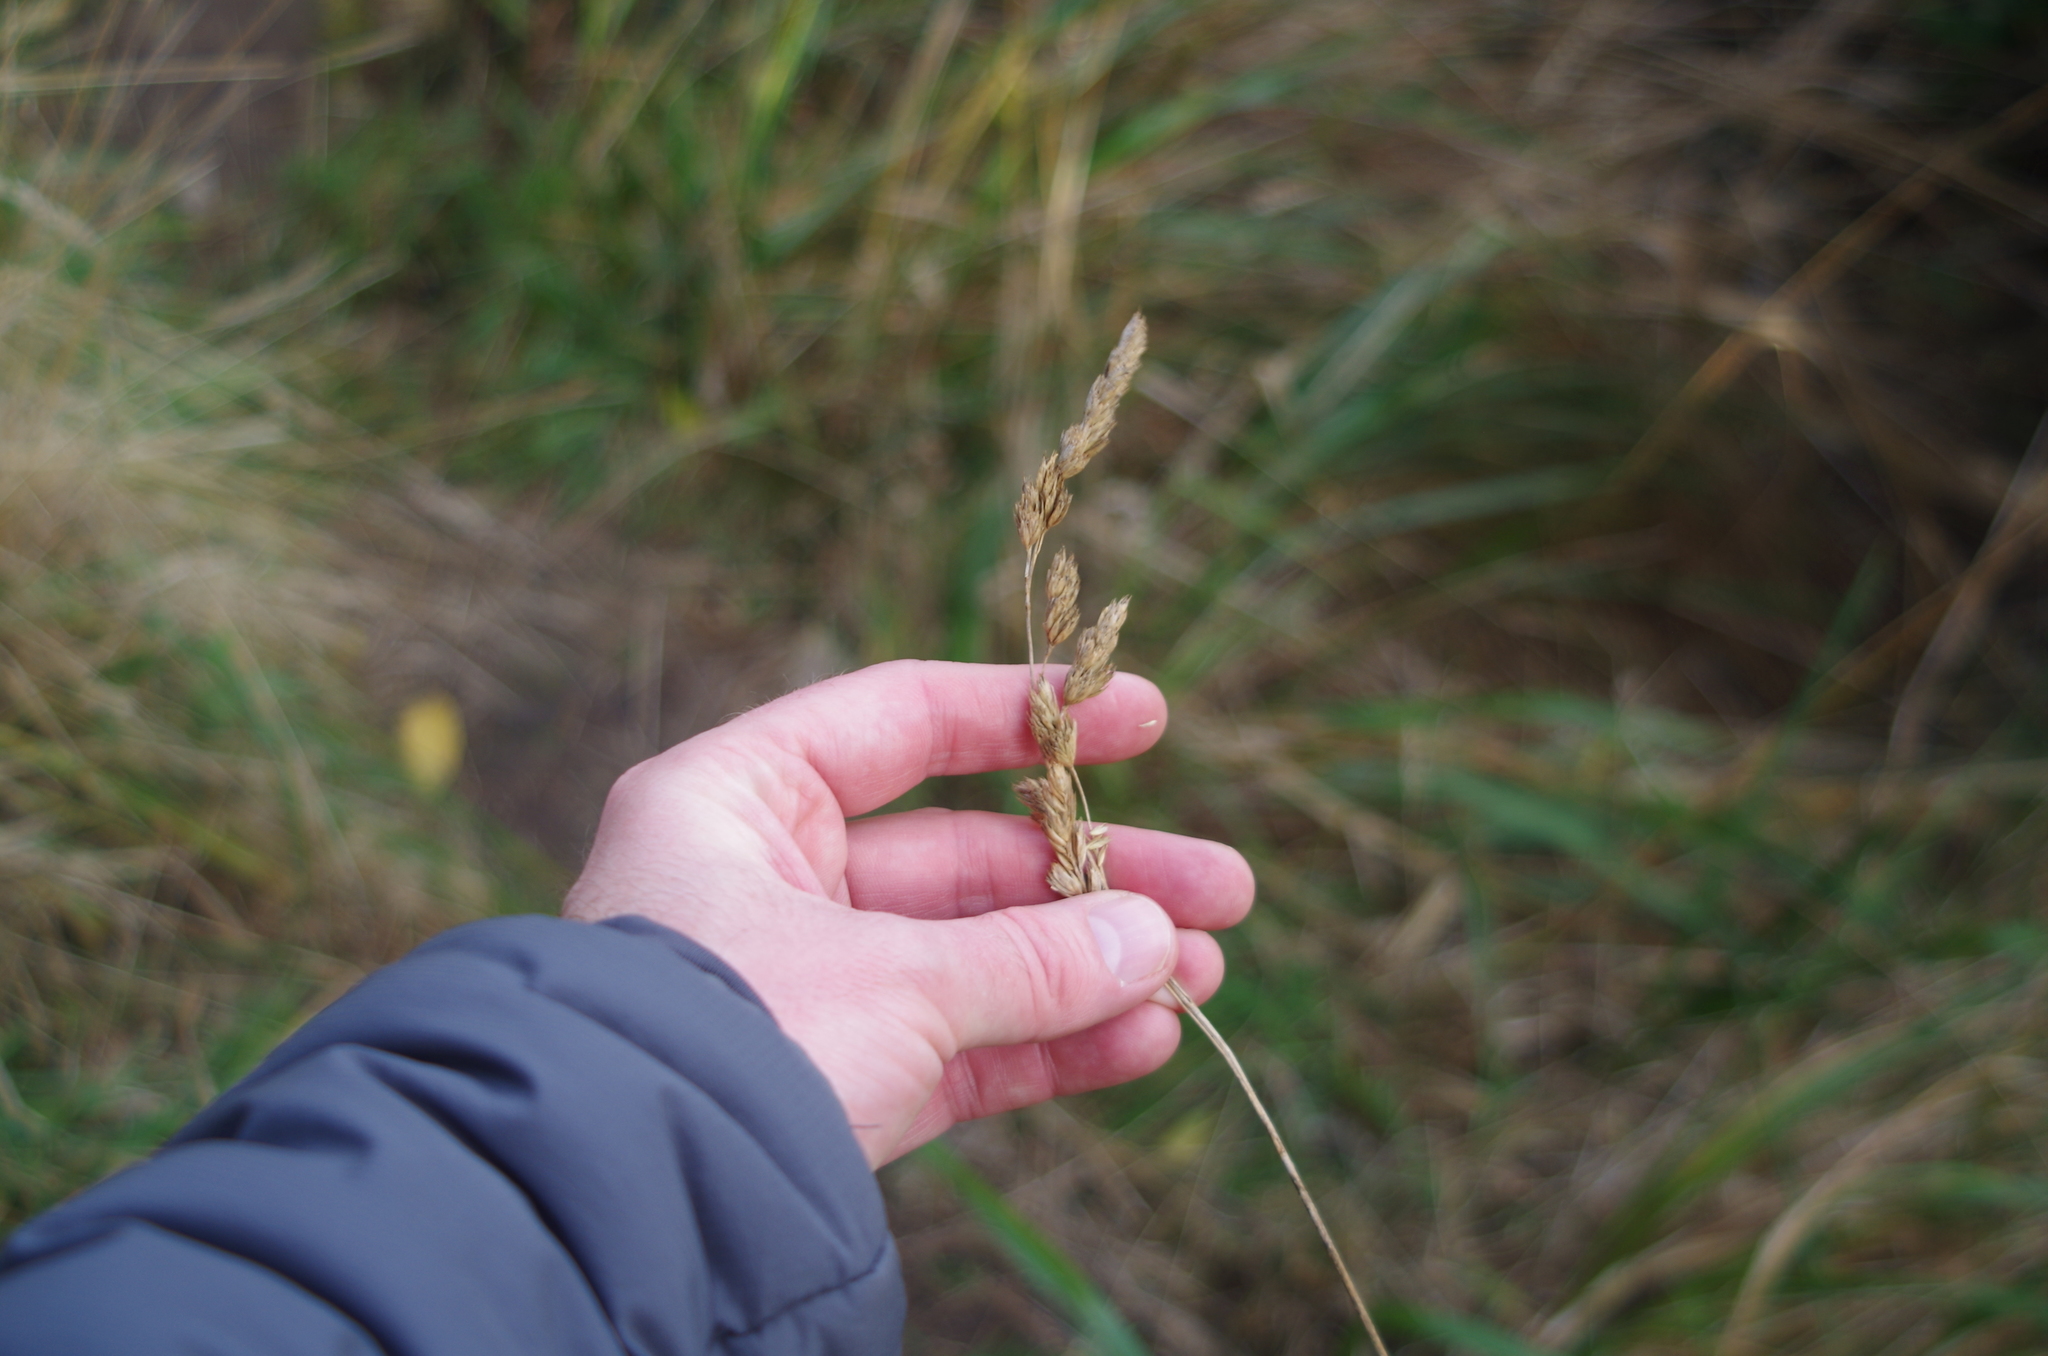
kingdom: Plantae
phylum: Tracheophyta
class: Liliopsida
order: Poales
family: Poaceae
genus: Dactylis
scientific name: Dactylis glomerata
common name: Orchardgrass
